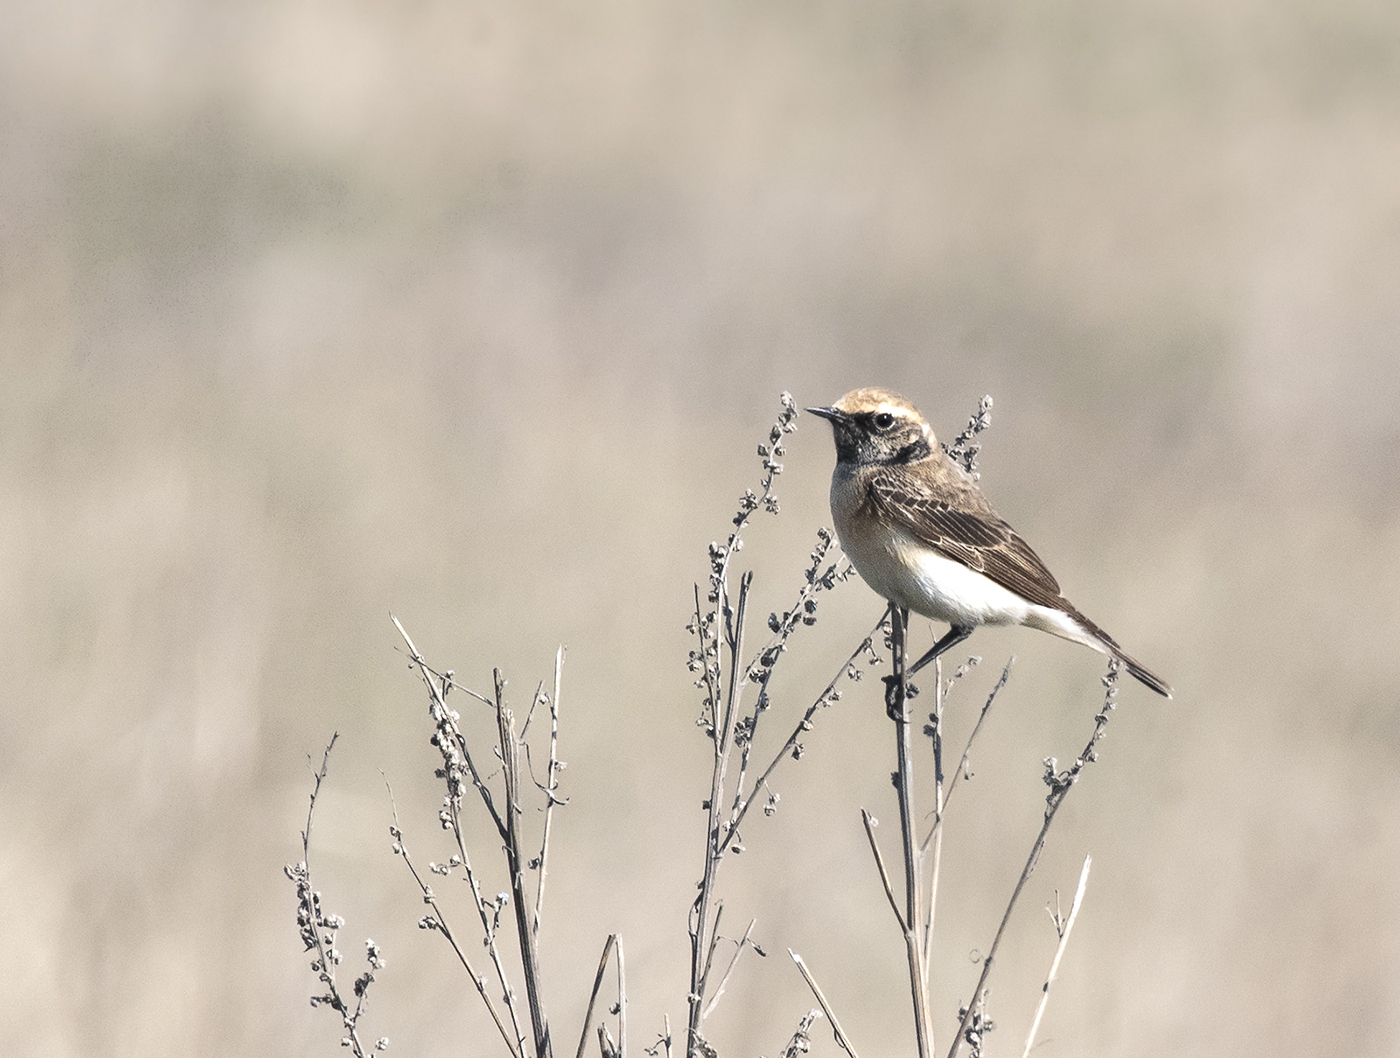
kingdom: Animalia
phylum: Chordata
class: Aves
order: Passeriformes
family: Muscicapidae
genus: Oenanthe
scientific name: Oenanthe deserti
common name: Desert wheatear
